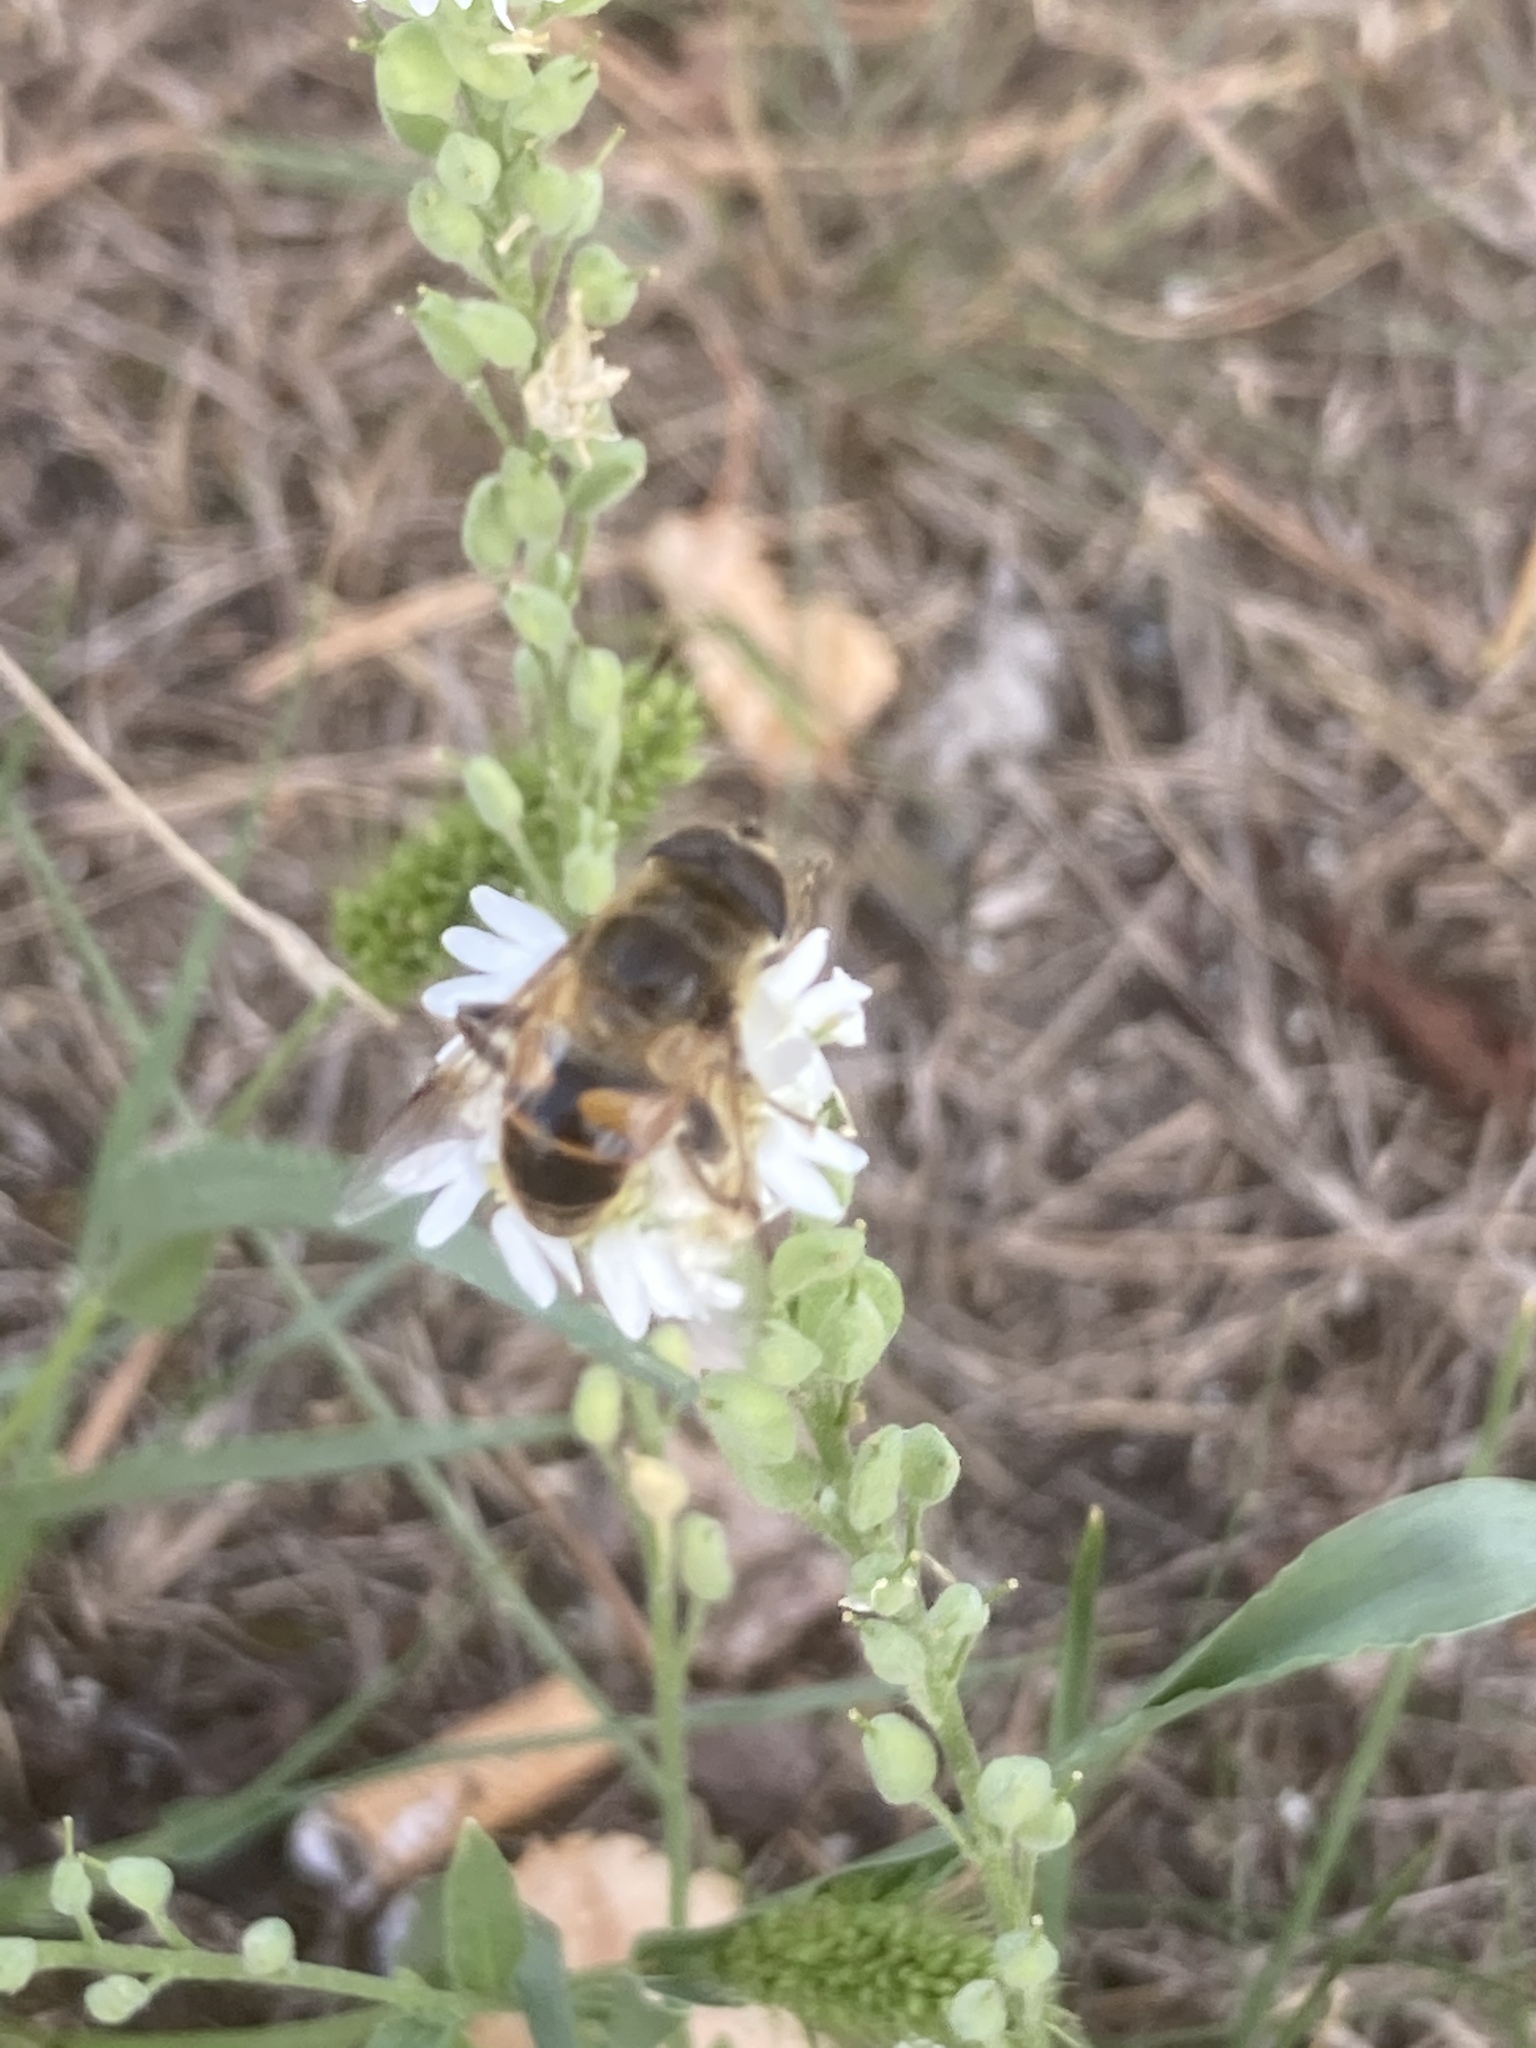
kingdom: Animalia
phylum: Arthropoda
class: Insecta
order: Diptera
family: Syrphidae
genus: Eristalis
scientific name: Eristalis tenax
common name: Drone fly
